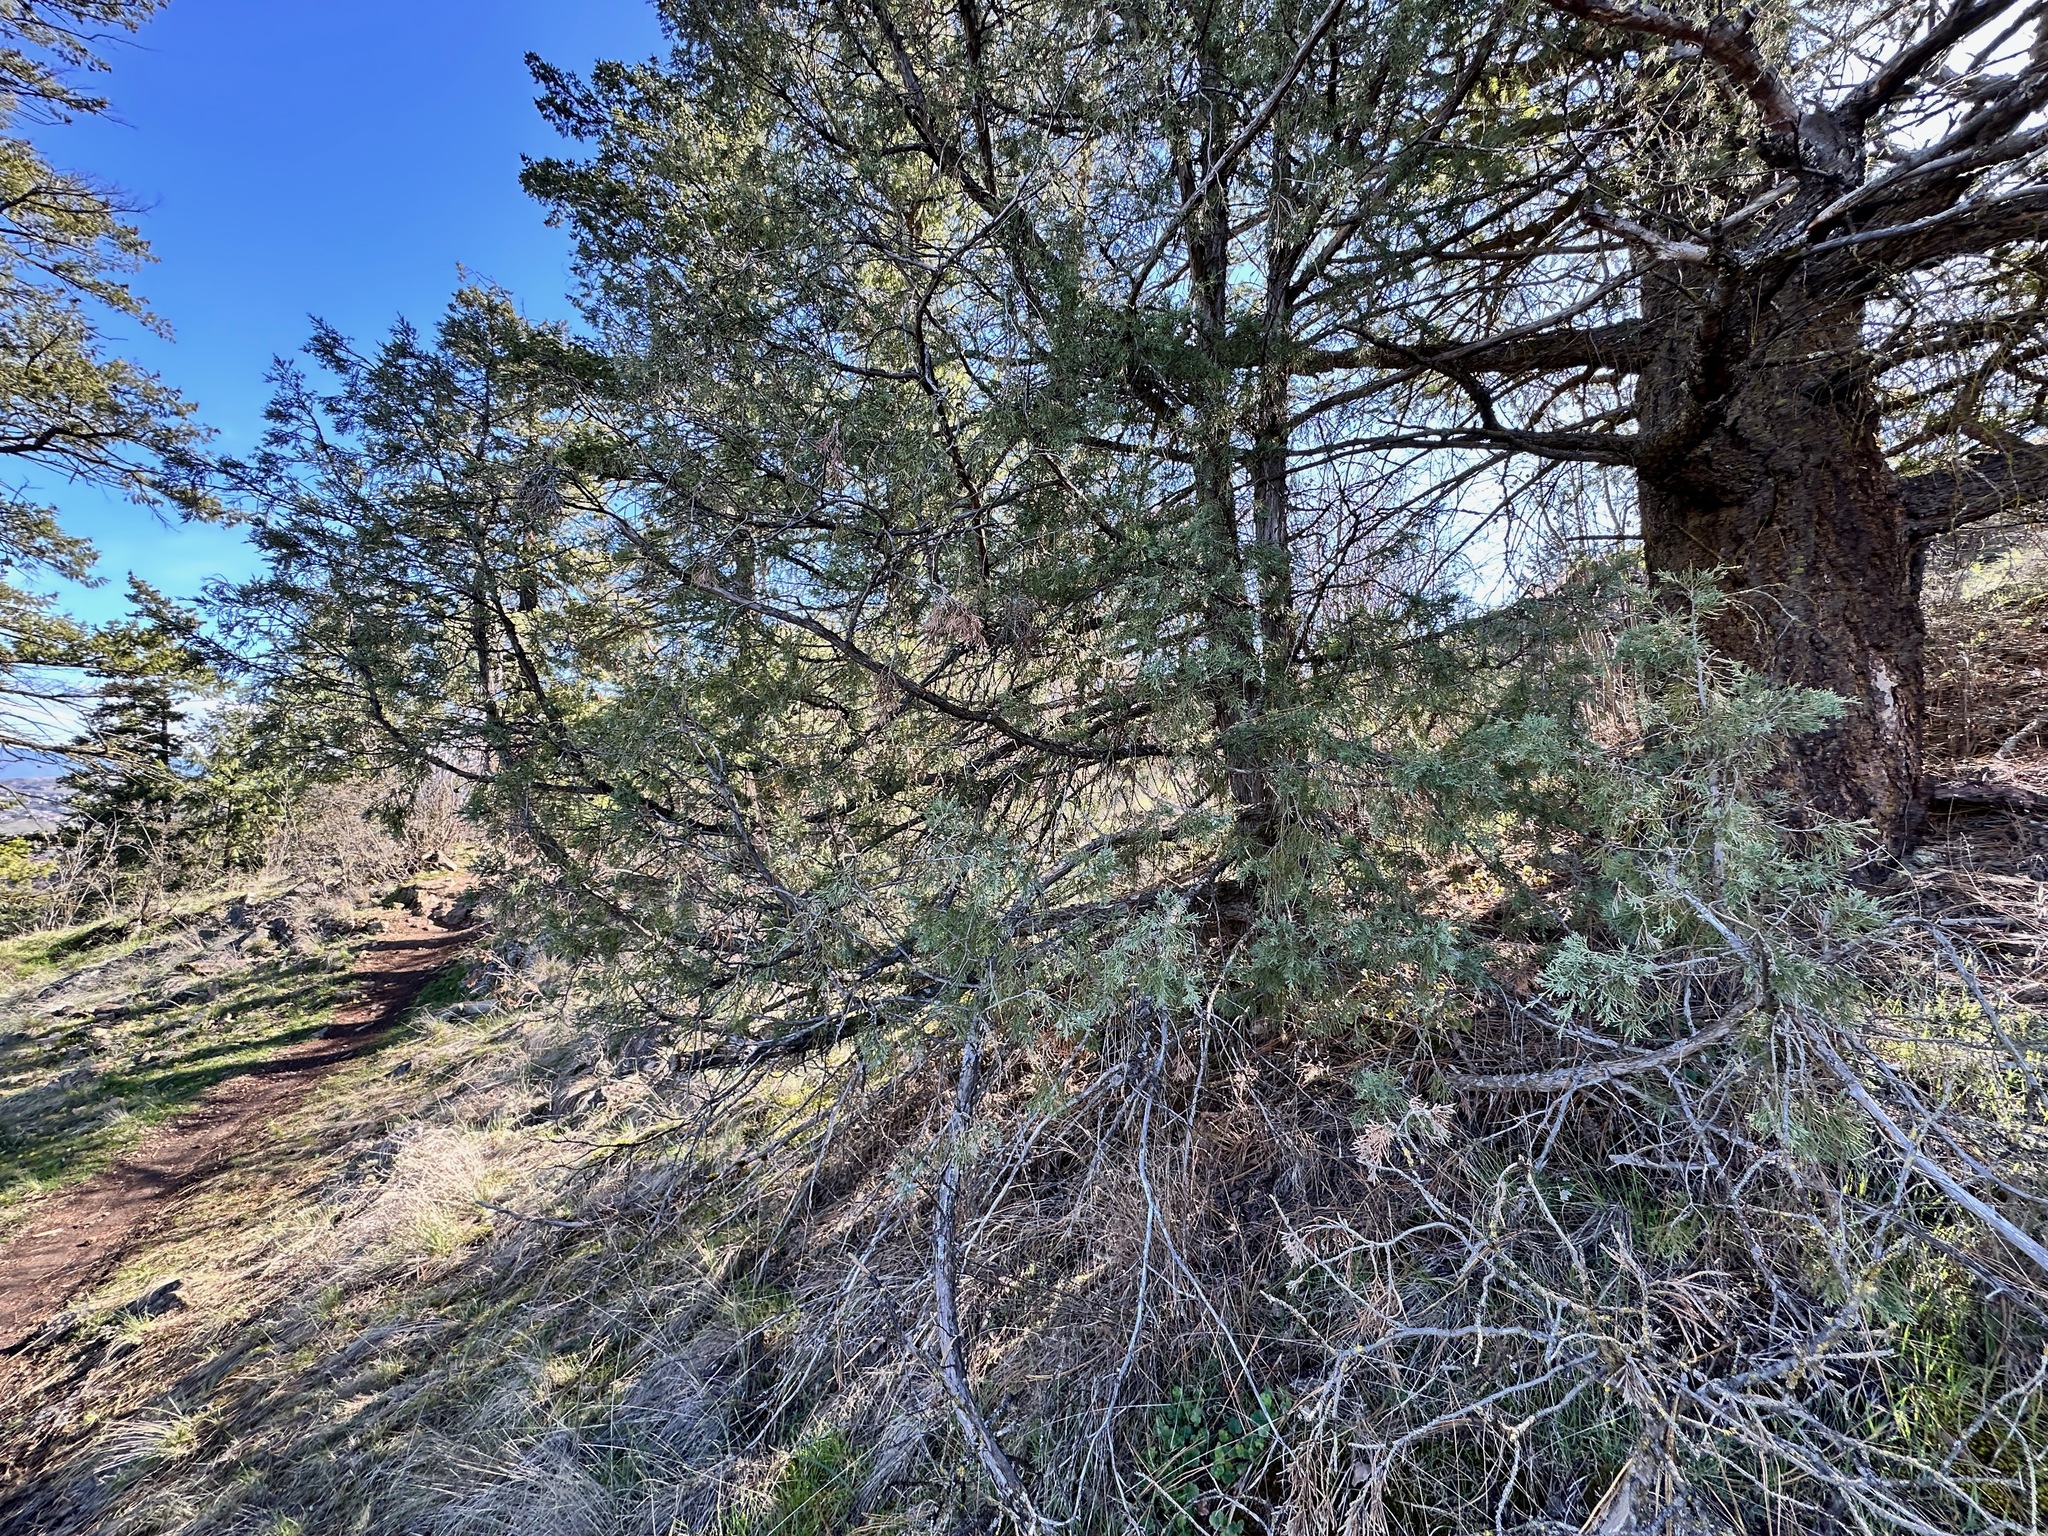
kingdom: Plantae
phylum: Tracheophyta
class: Pinopsida
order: Pinales
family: Cupressaceae
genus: Juniperus
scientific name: Juniperus scopulorum
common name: Rocky mountain juniper
